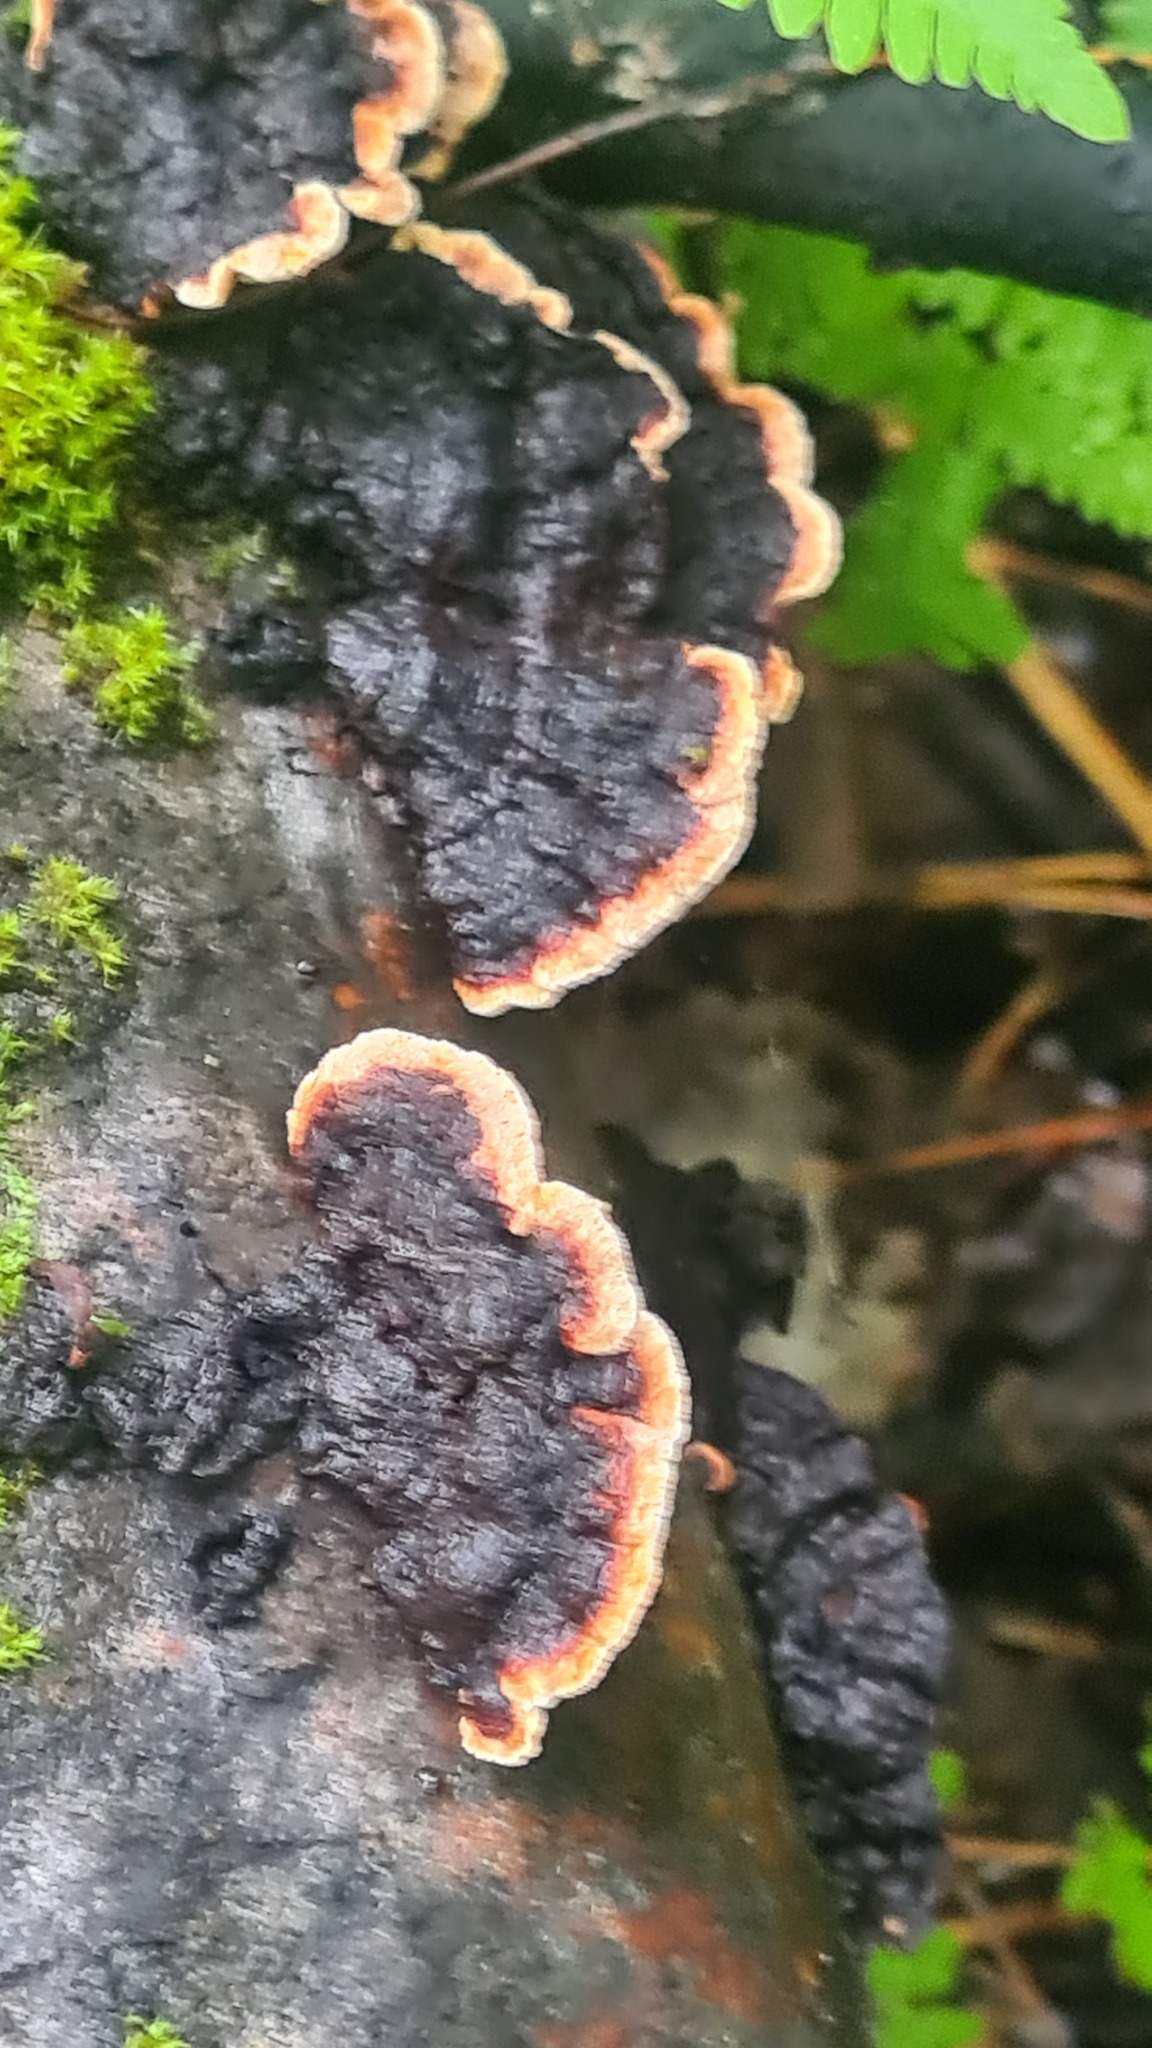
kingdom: Fungi
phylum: Basidiomycota
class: Agaricomycetes
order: Corticiales
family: Punctulariaceae
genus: Punctularia
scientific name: Punctularia strigosozonata
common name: White-rot fungus
